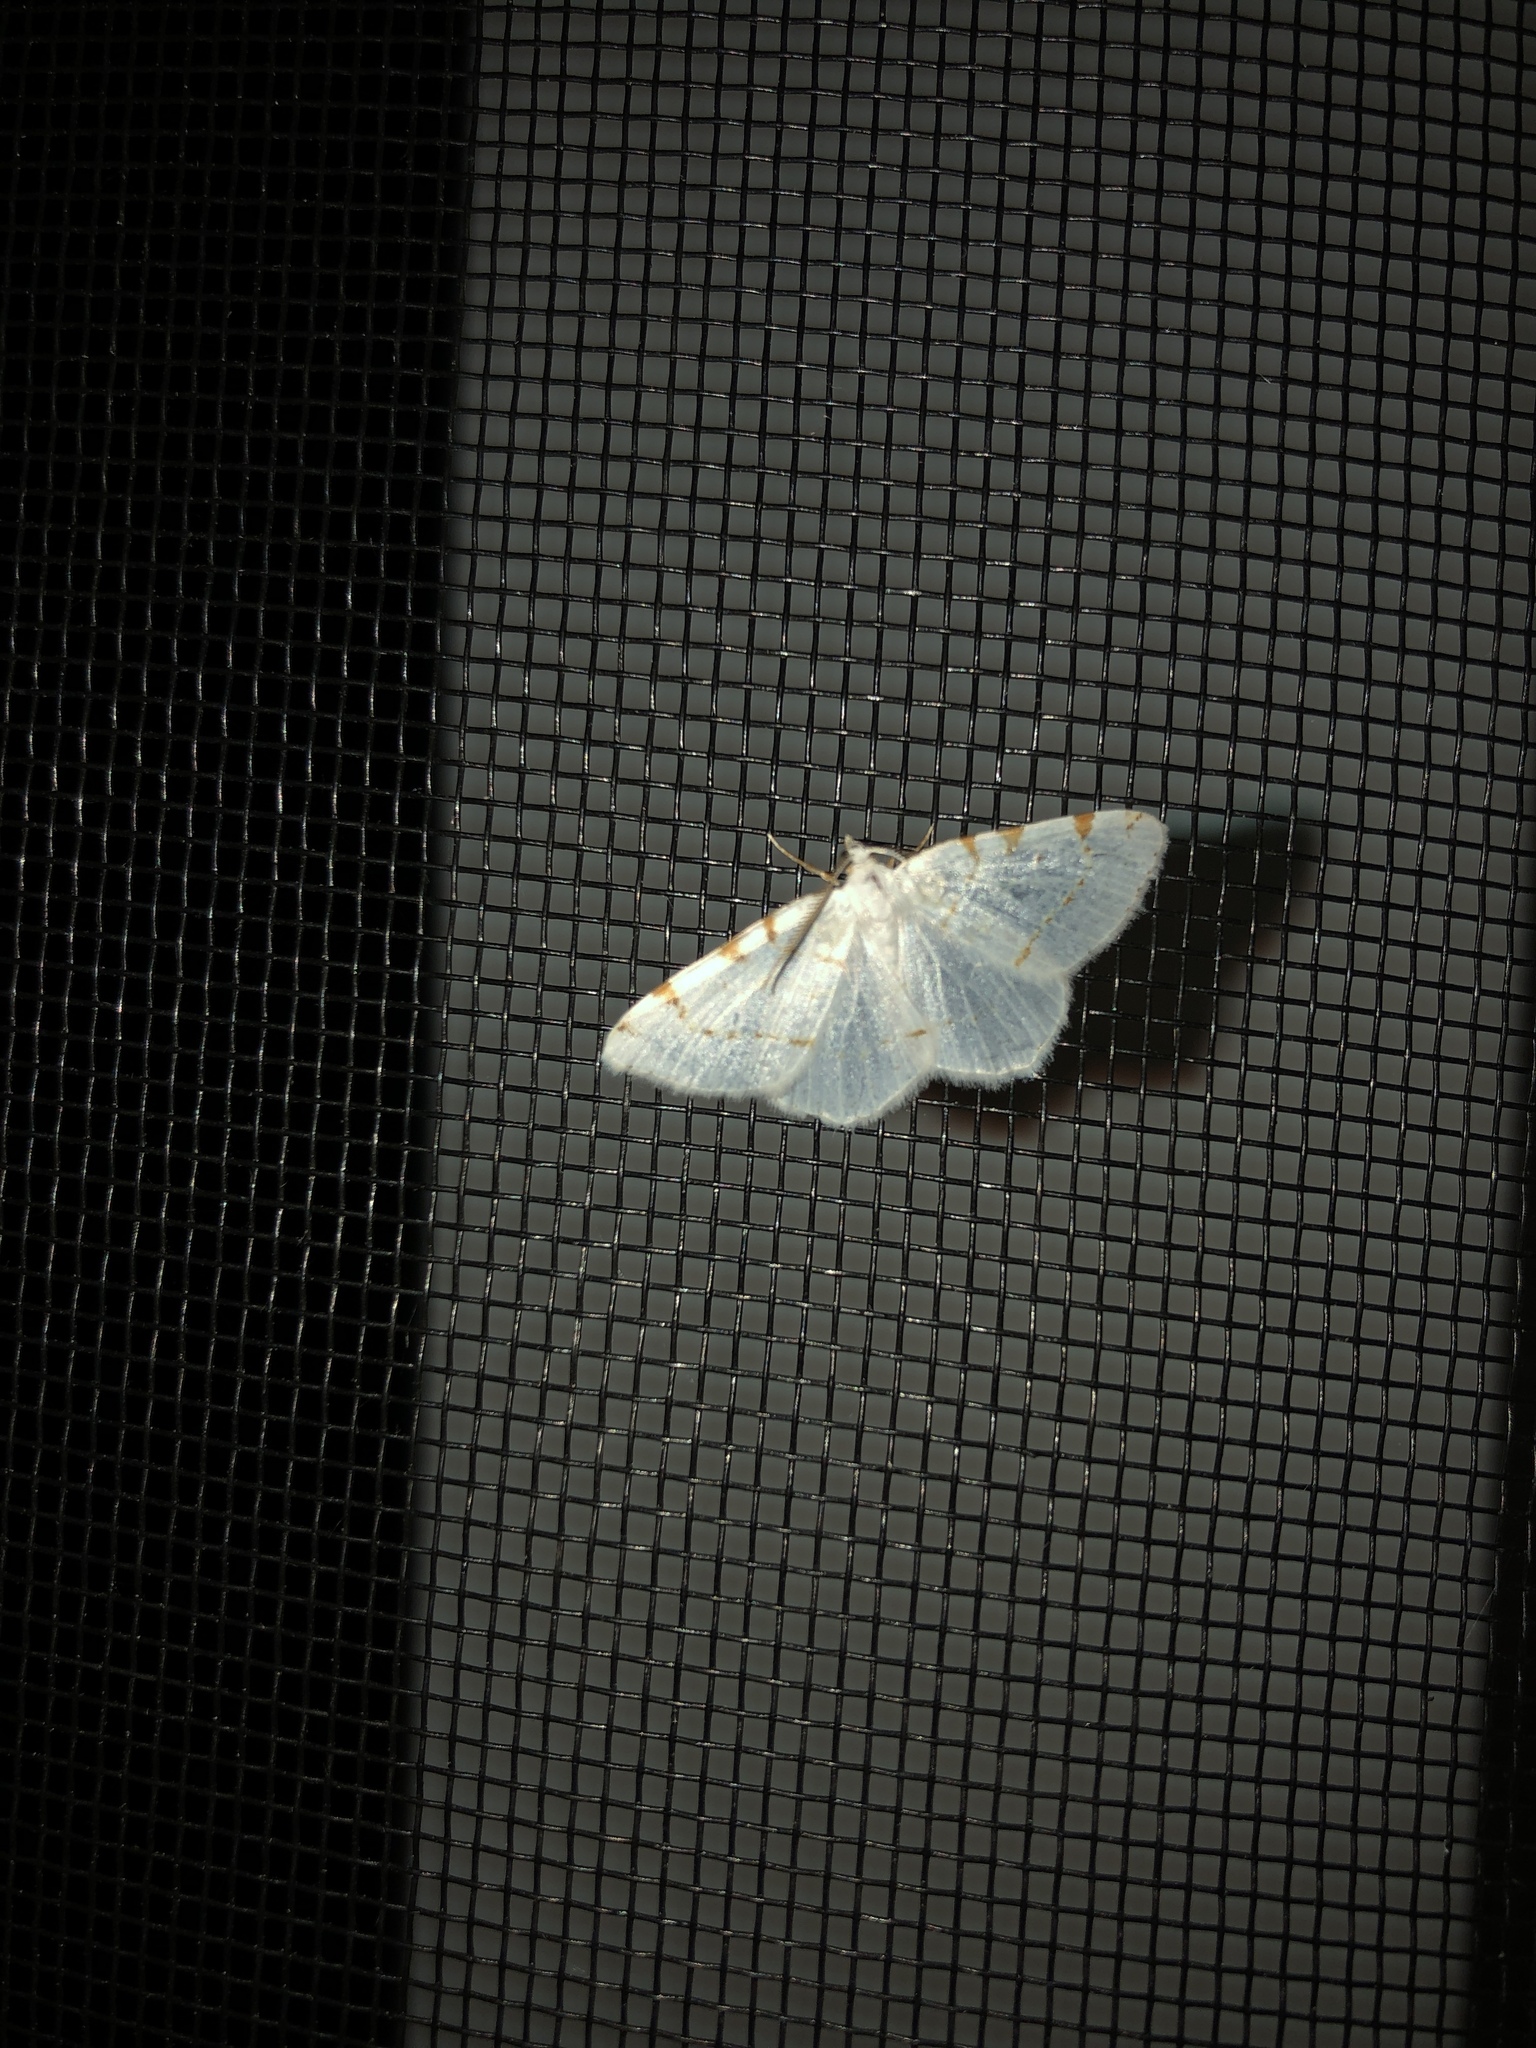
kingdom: Animalia
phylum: Arthropoda
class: Insecta
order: Lepidoptera
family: Geometridae
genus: Macaria
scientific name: Macaria pustularia
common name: Lesser maple spanworm moth
